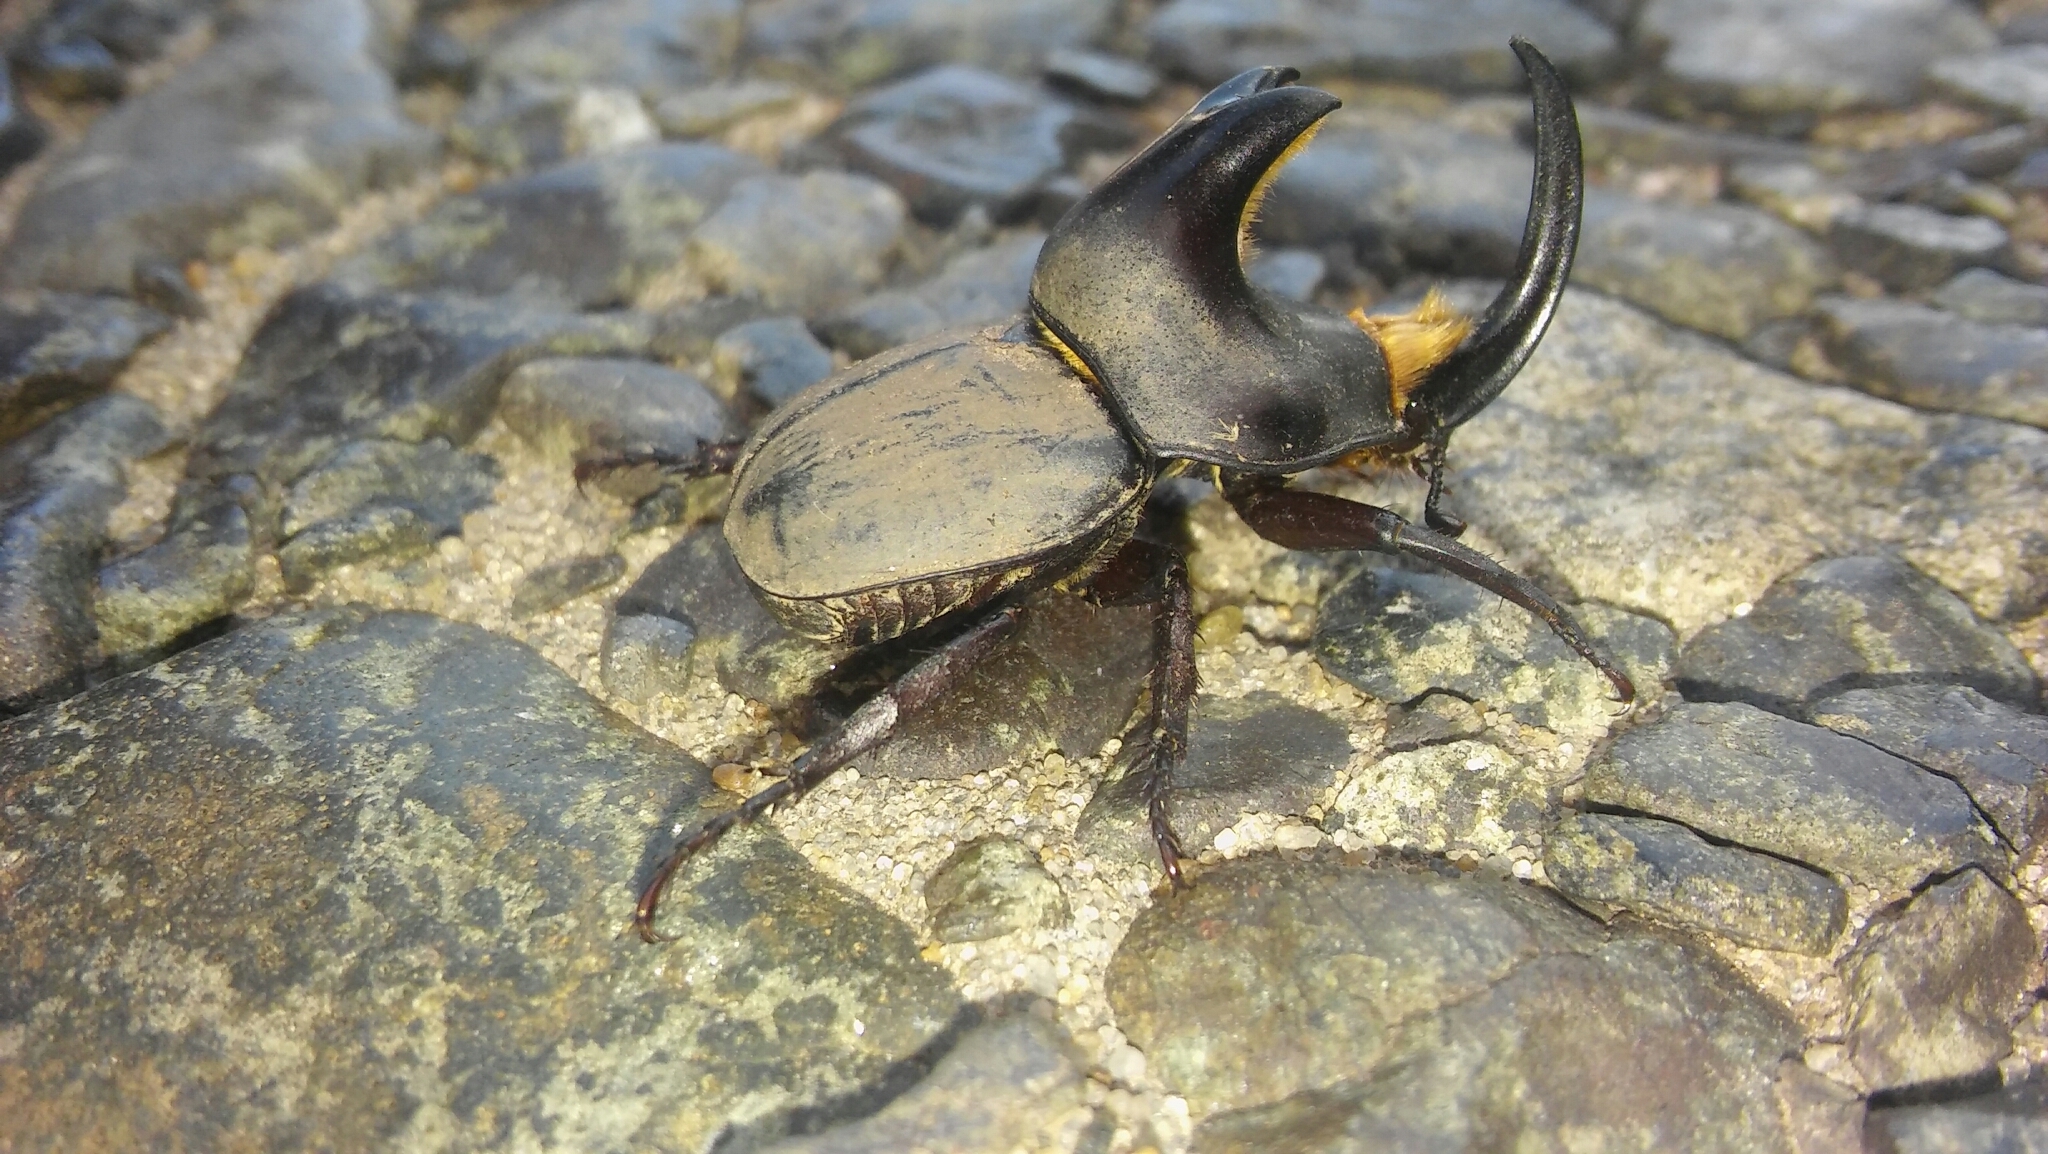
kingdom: Animalia
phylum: Arthropoda
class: Insecta
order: Coleoptera
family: Scarabaeidae
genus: Diloboderus
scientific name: Diloboderus abderus
